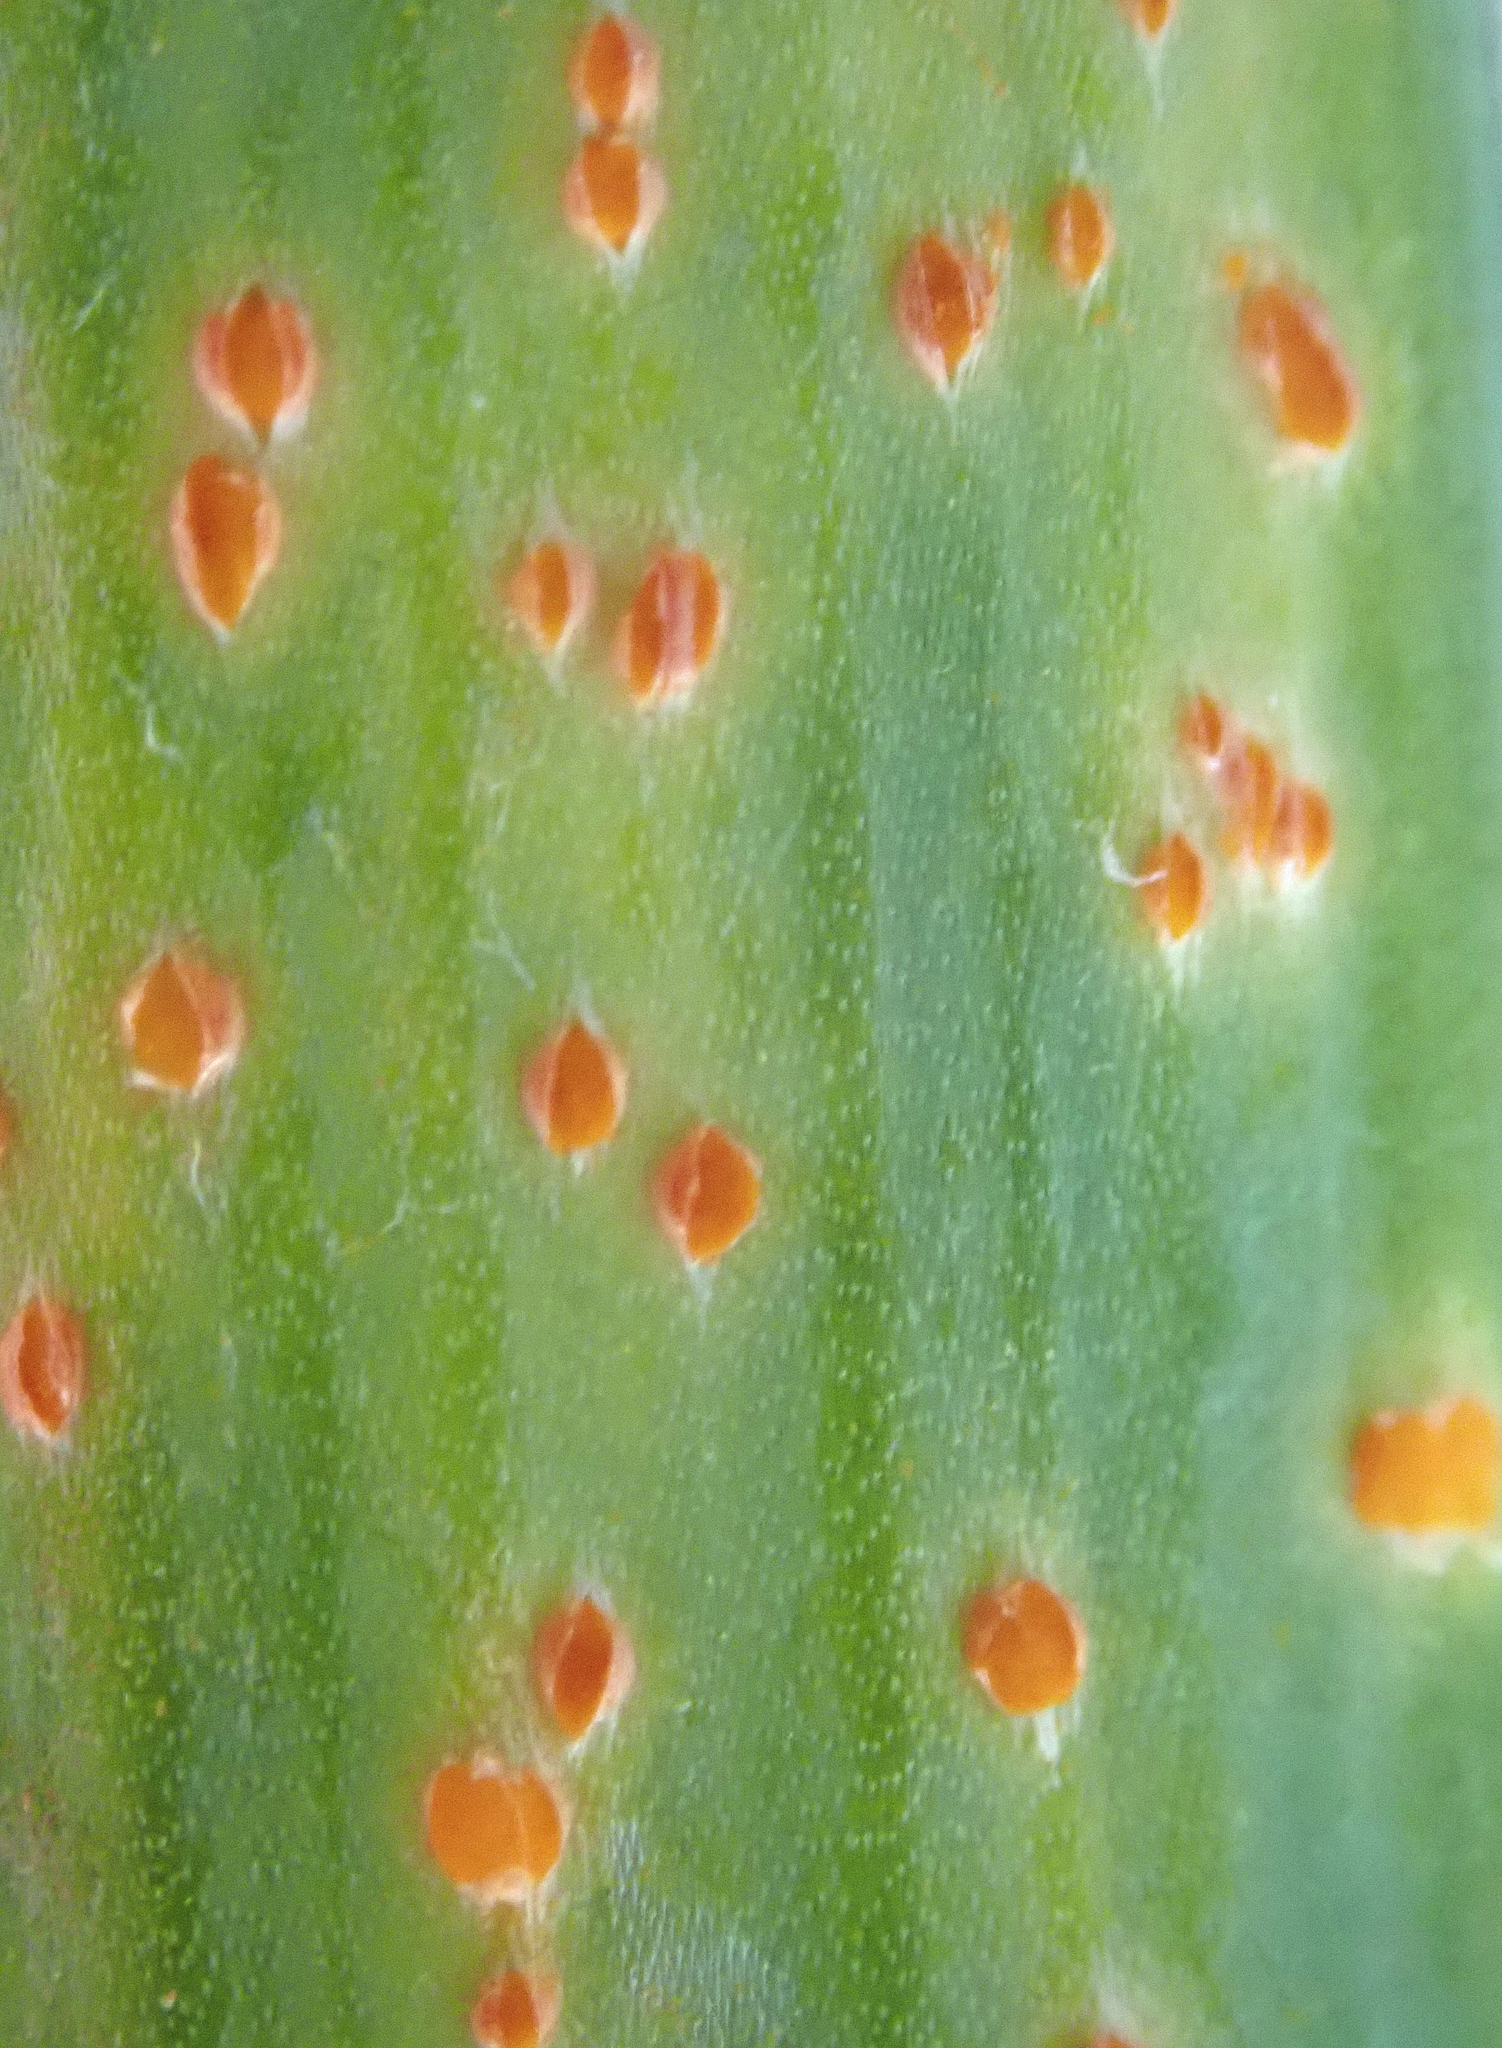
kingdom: Fungi
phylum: Basidiomycota
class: Pucciniomycetes
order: Pucciniales
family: Pucciniaceae
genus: Puccinia
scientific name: Puccinia allii
